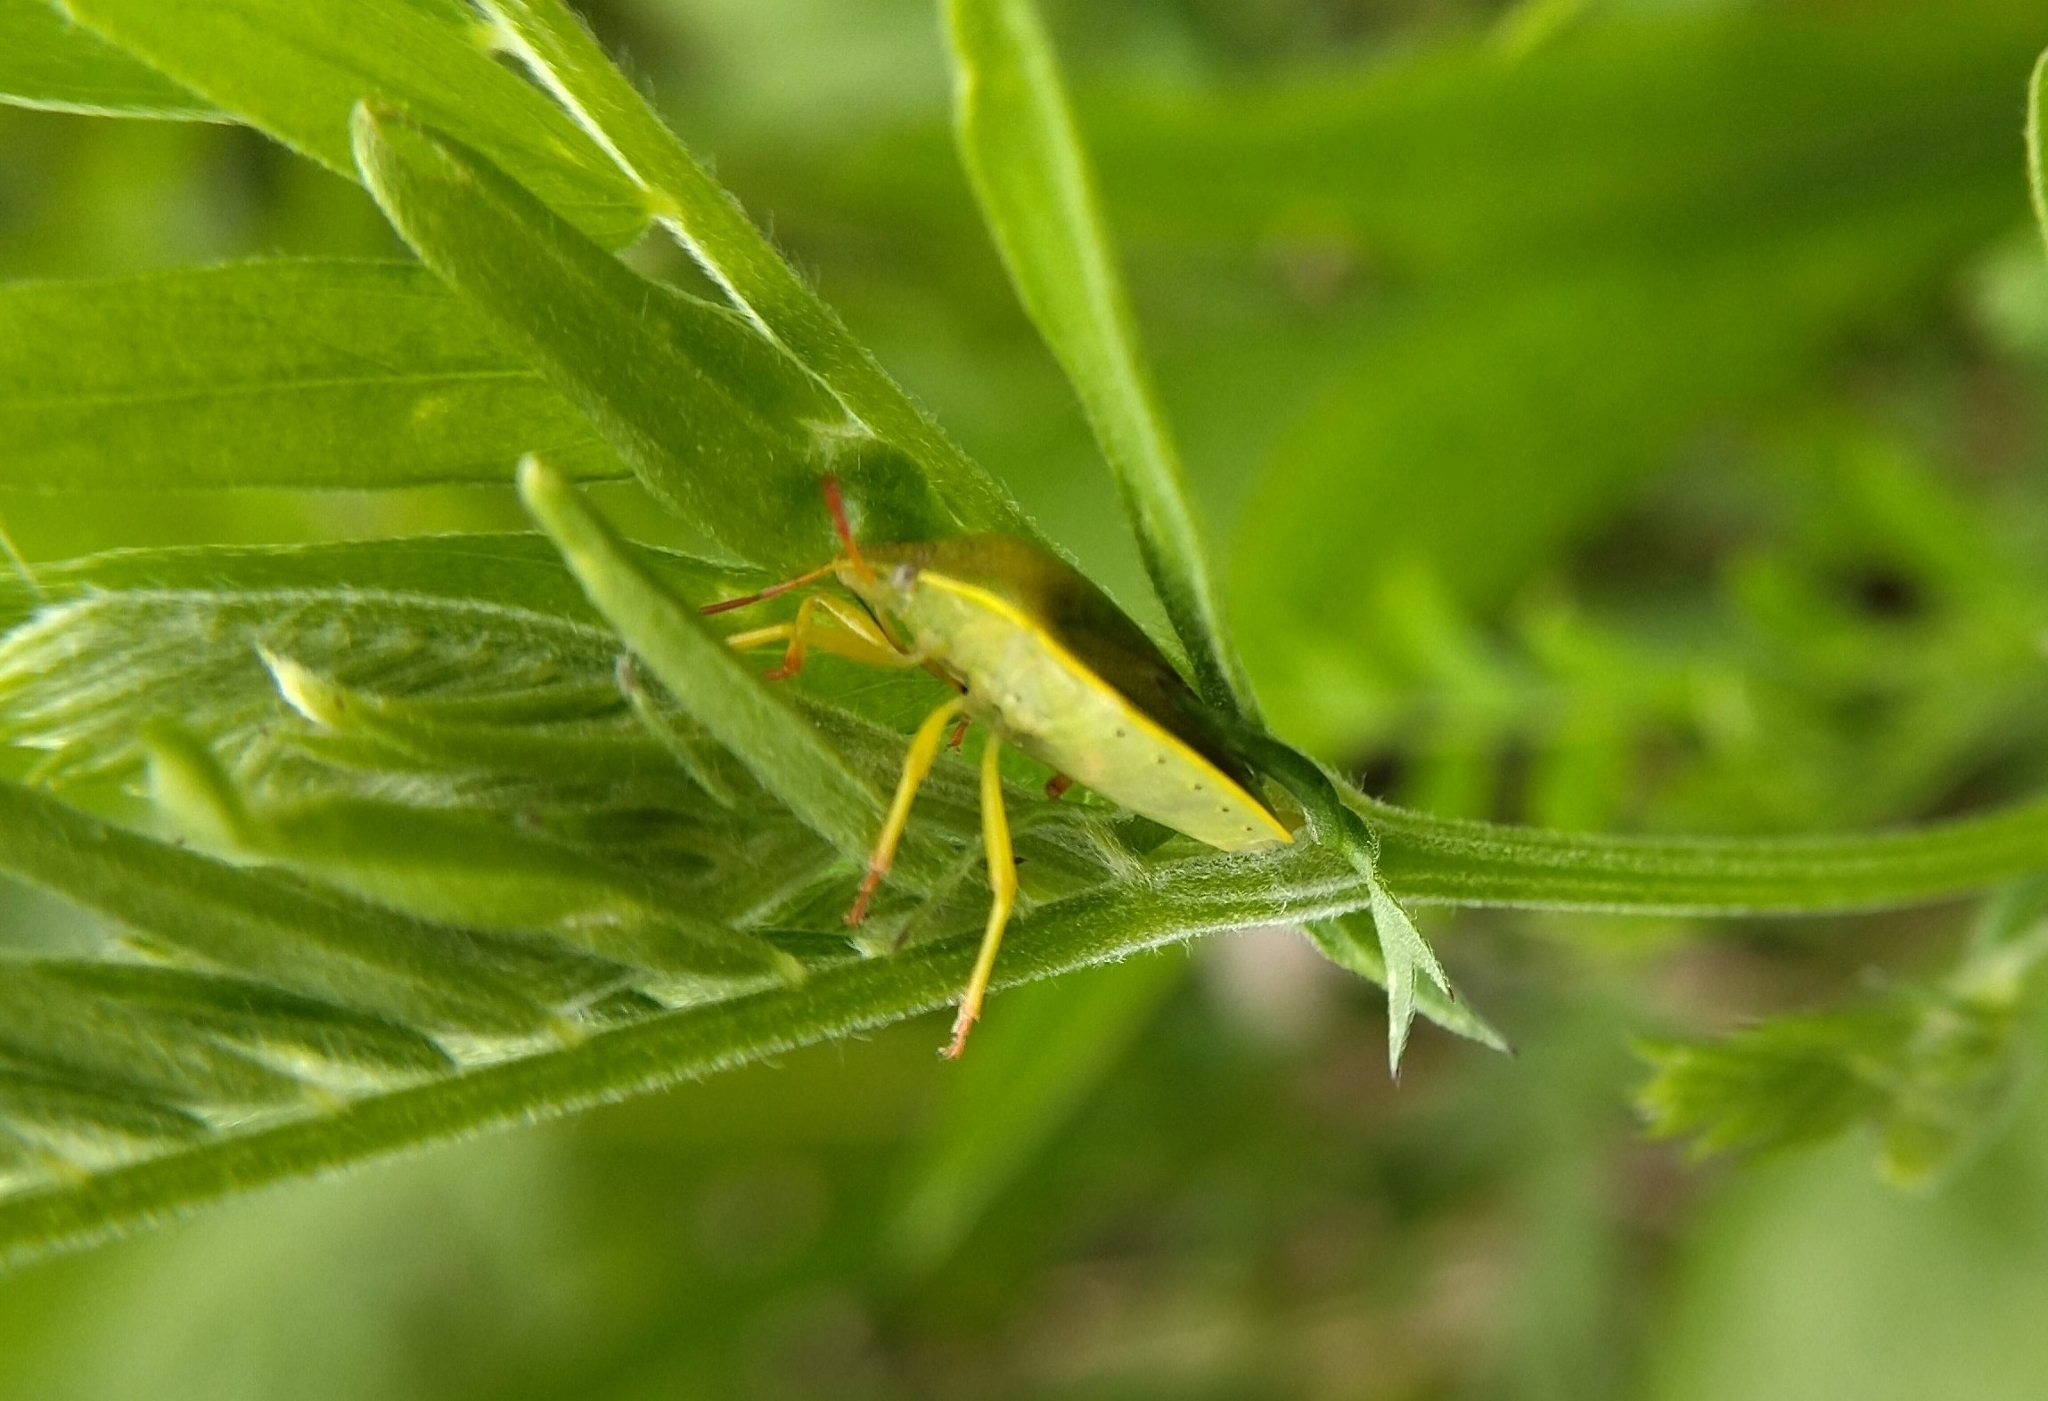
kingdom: Animalia
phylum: Arthropoda
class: Insecta
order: Hemiptera
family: Pentatomidae
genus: Piezodorus
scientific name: Piezodorus lituratus
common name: Stink bug
